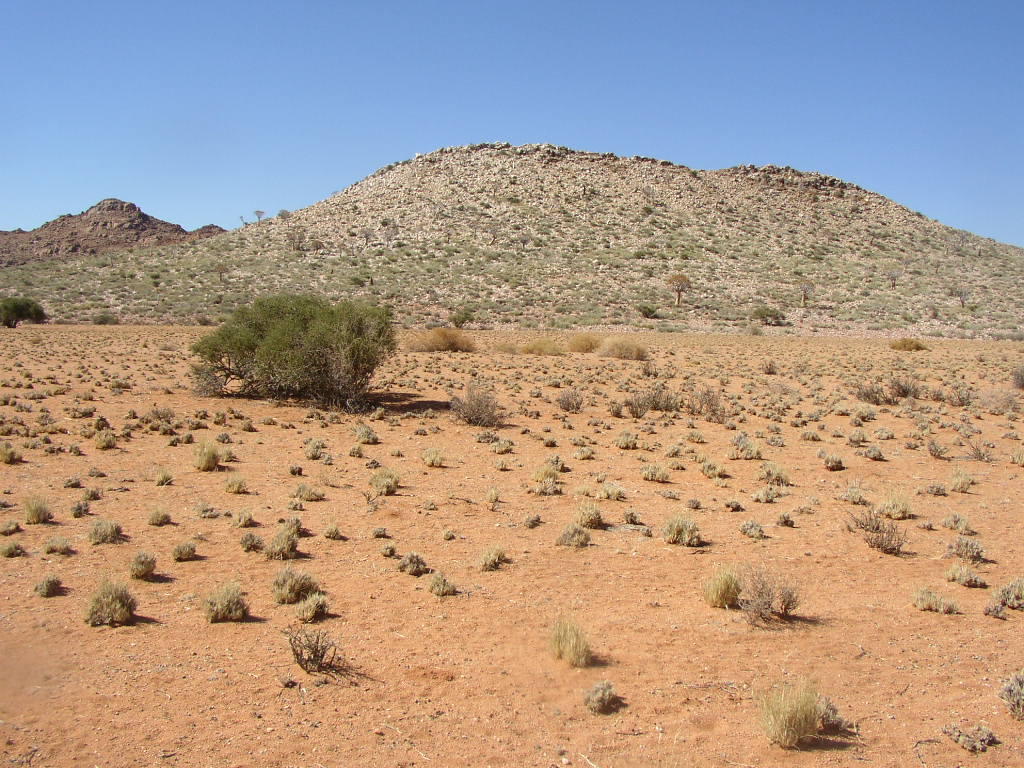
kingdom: Plantae
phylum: Tracheophyta
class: Liliopsida
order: Asparagales
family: Asphodelaceae
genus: Aloidendron
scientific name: Aloidendron dichotomum
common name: Quiver tree
